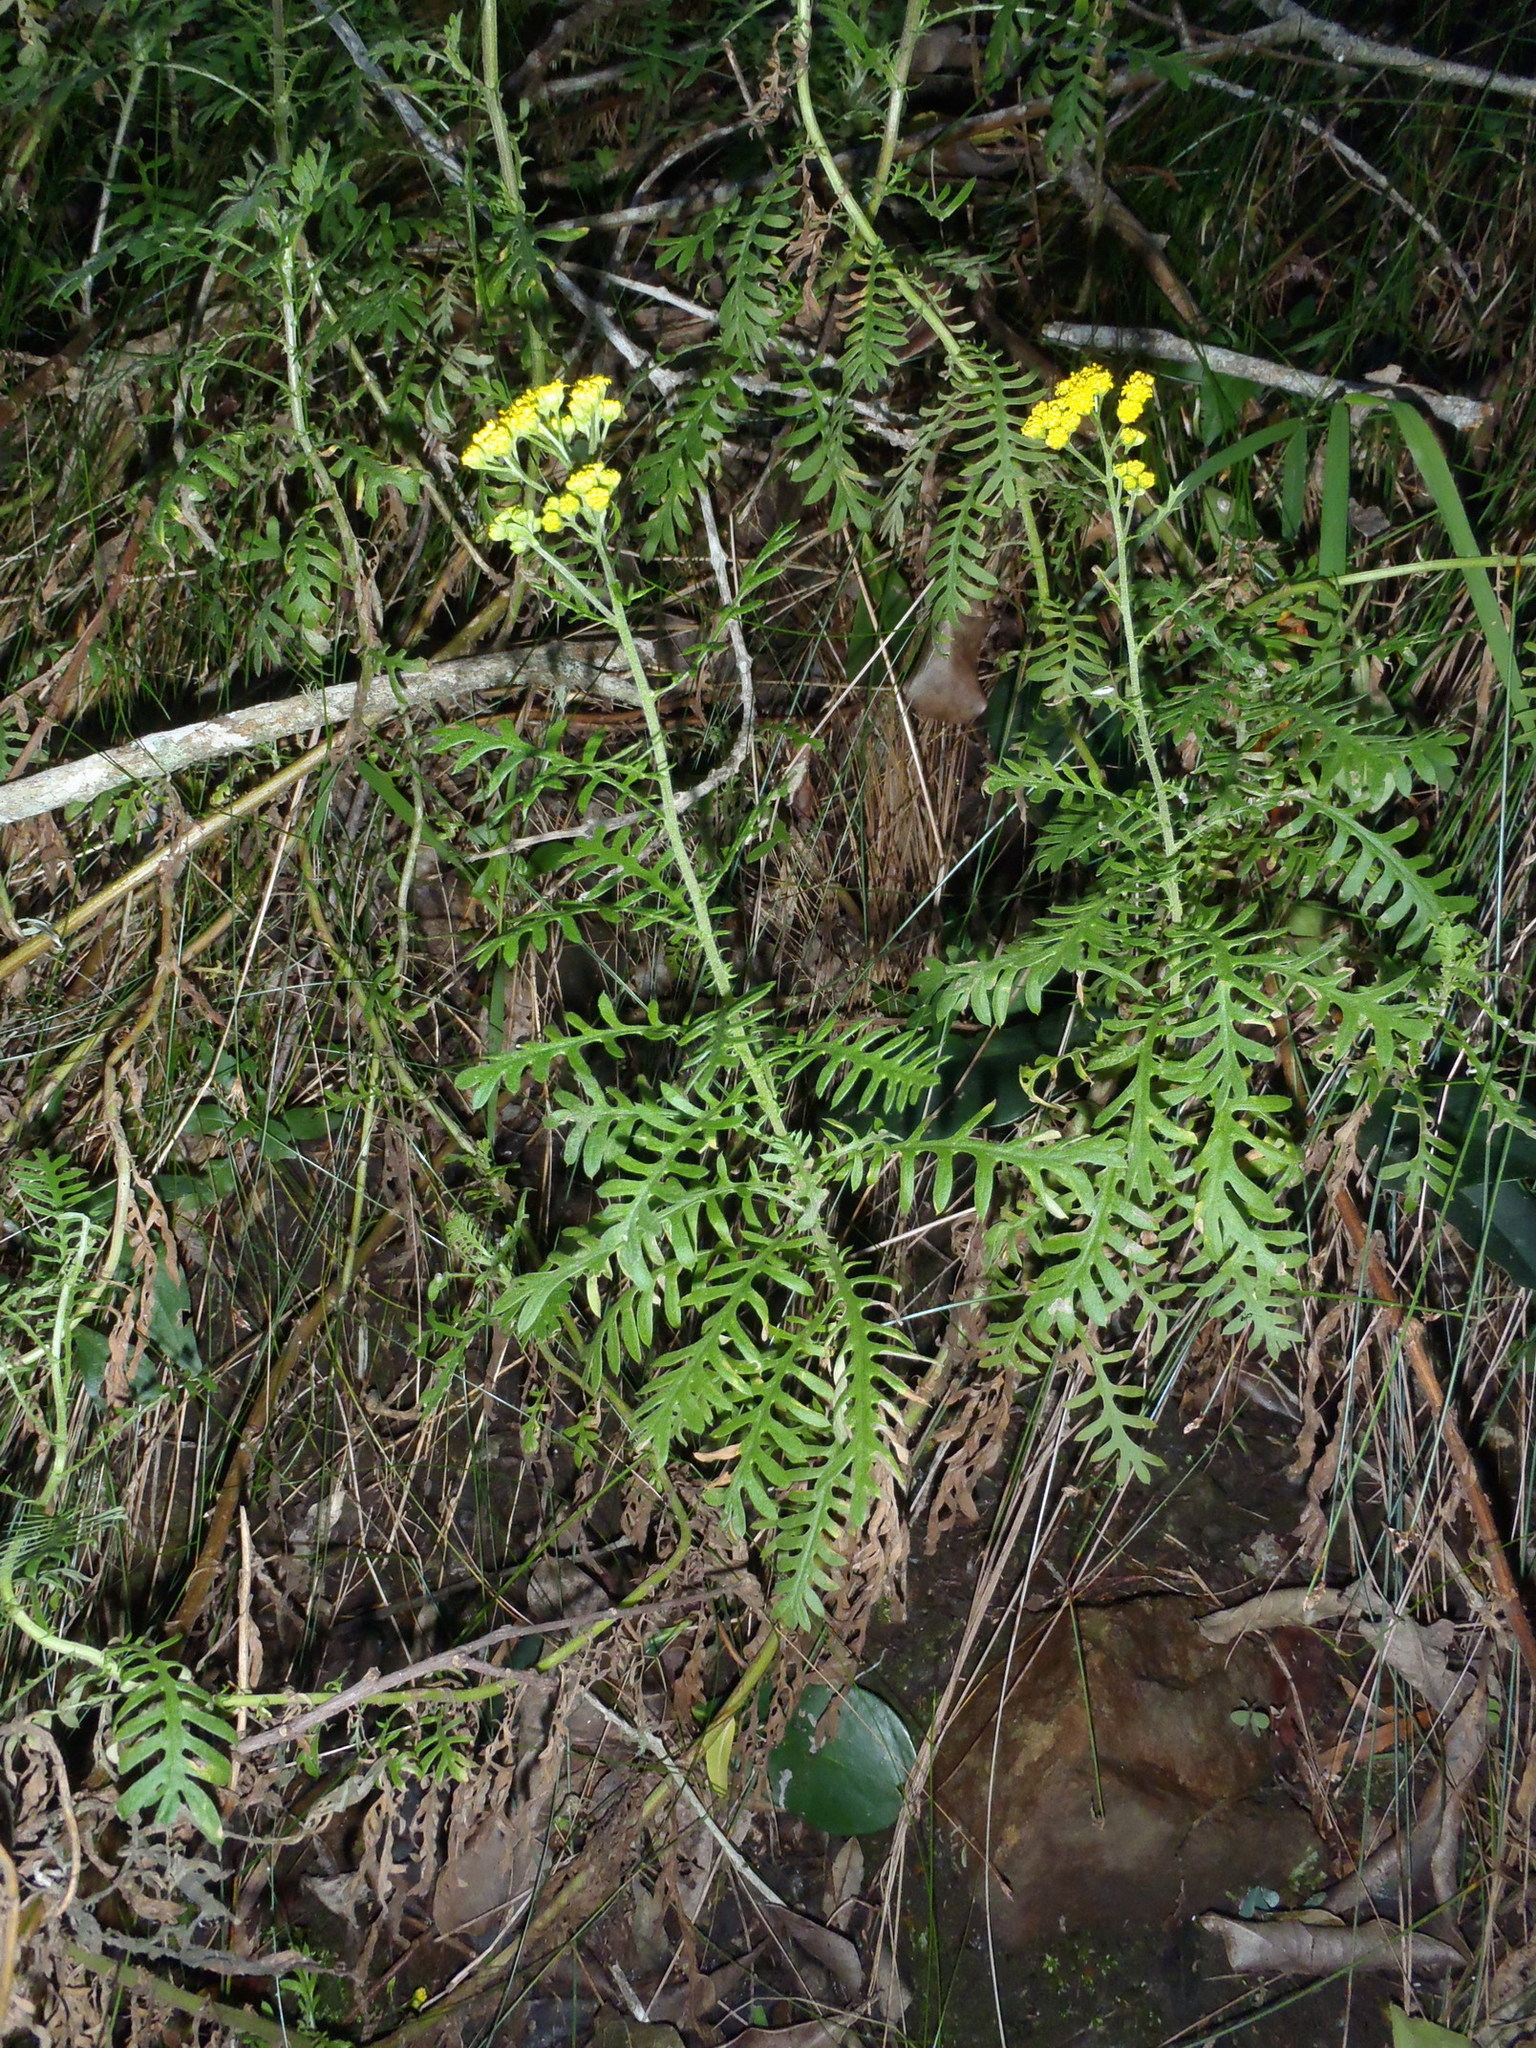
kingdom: Plantae
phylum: Tracheophyta
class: Magnoliopsida
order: Asterales
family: Asteraceae
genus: Hippia
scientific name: Hippia frutescens
